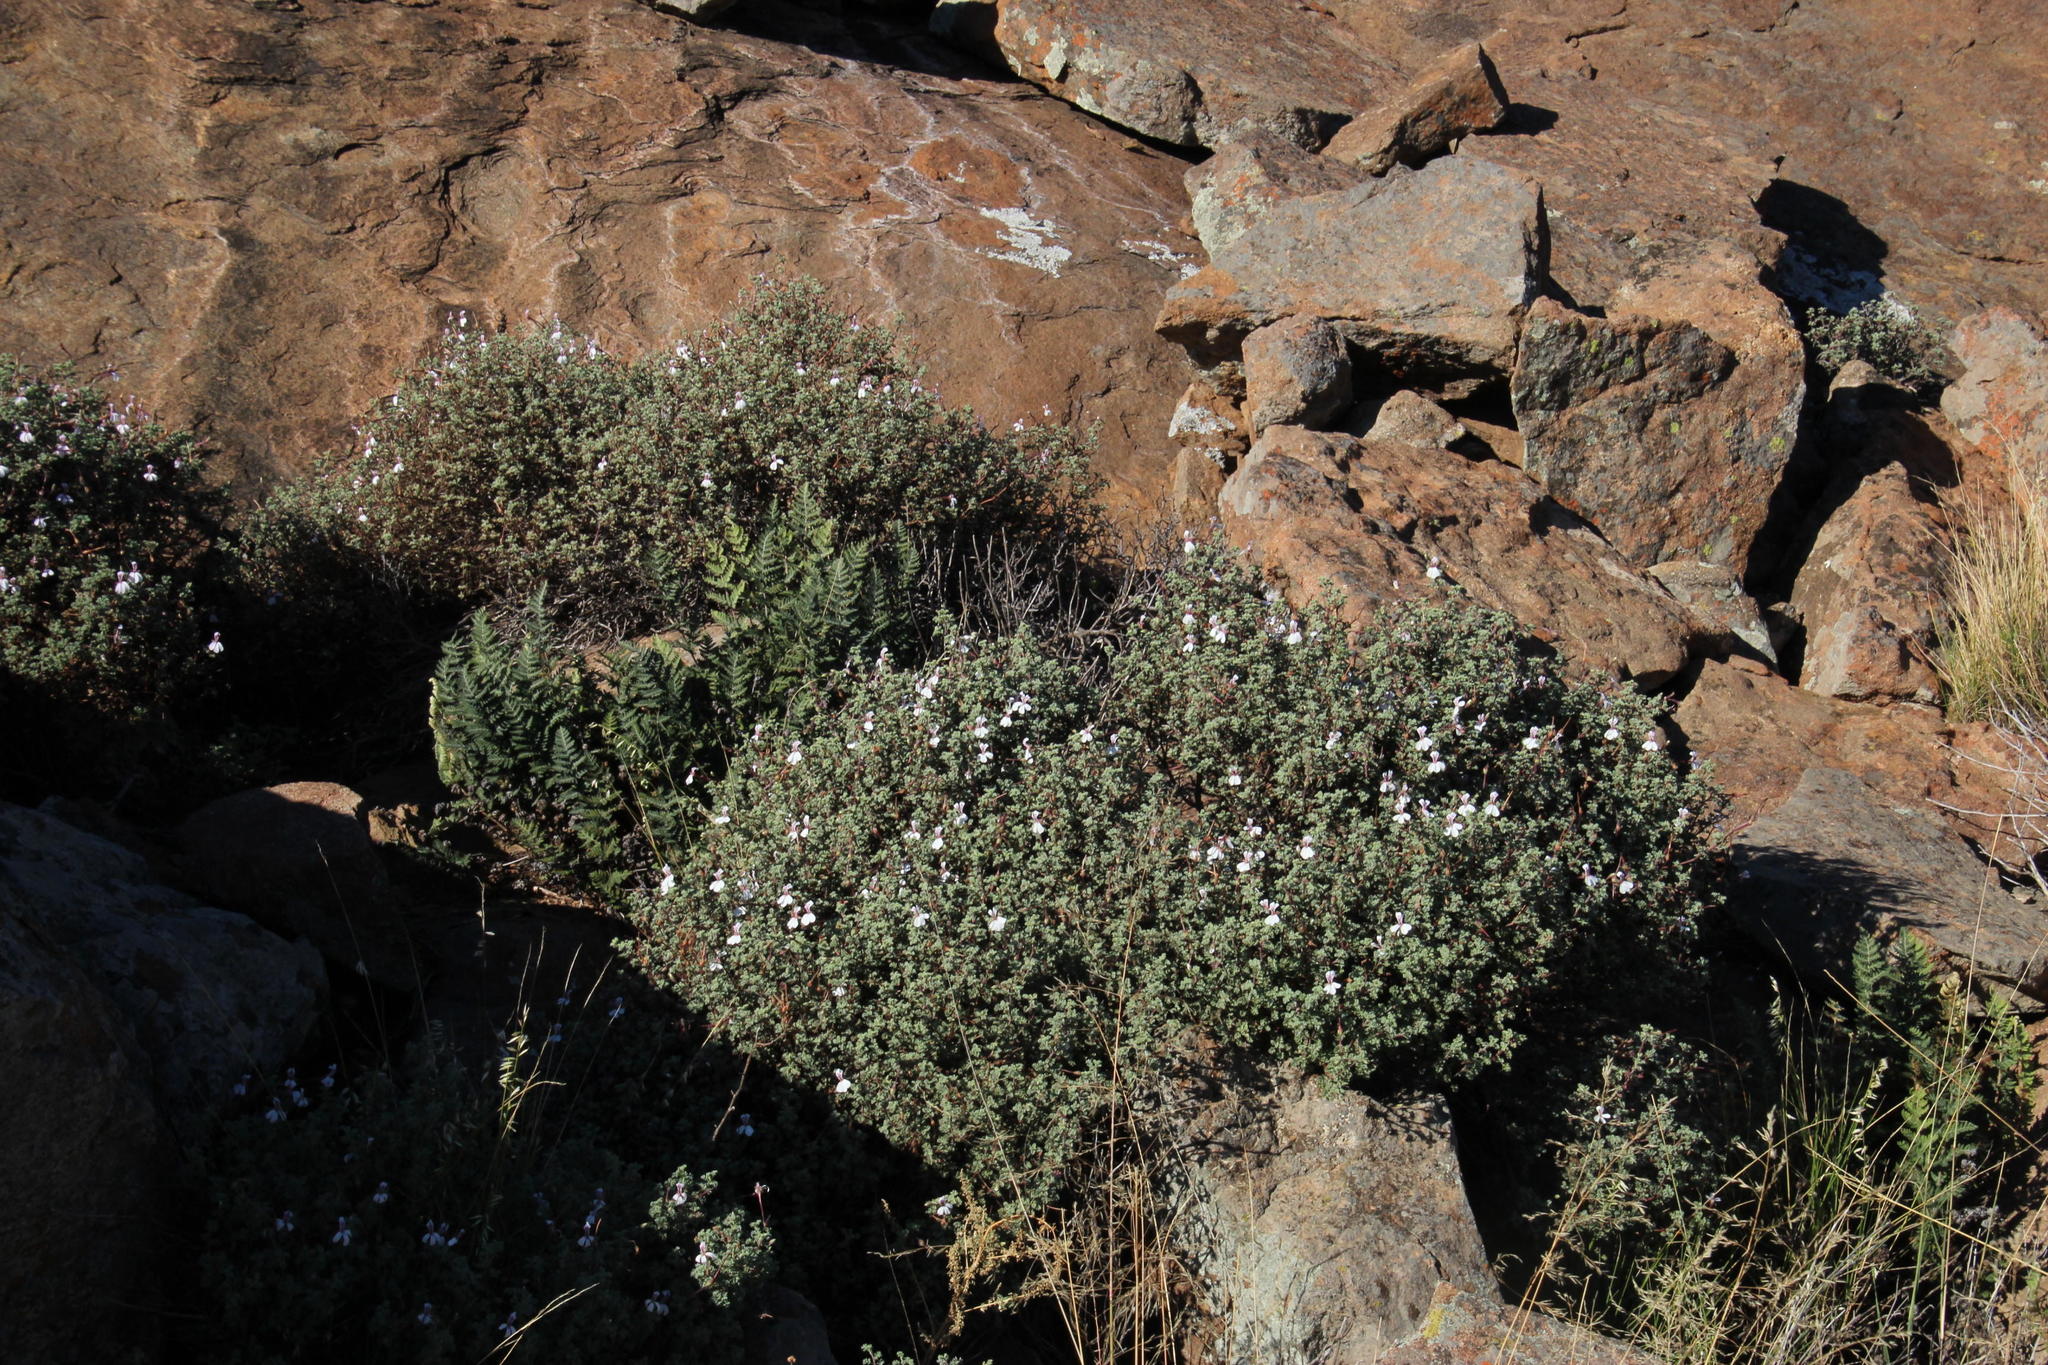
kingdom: Plantae
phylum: Tracheophyta
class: Magnoliopsida
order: Geraniales
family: Geraniaceae
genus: Pelargonium
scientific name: Pelargonium abrotanifolium
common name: Southernwood geranium
